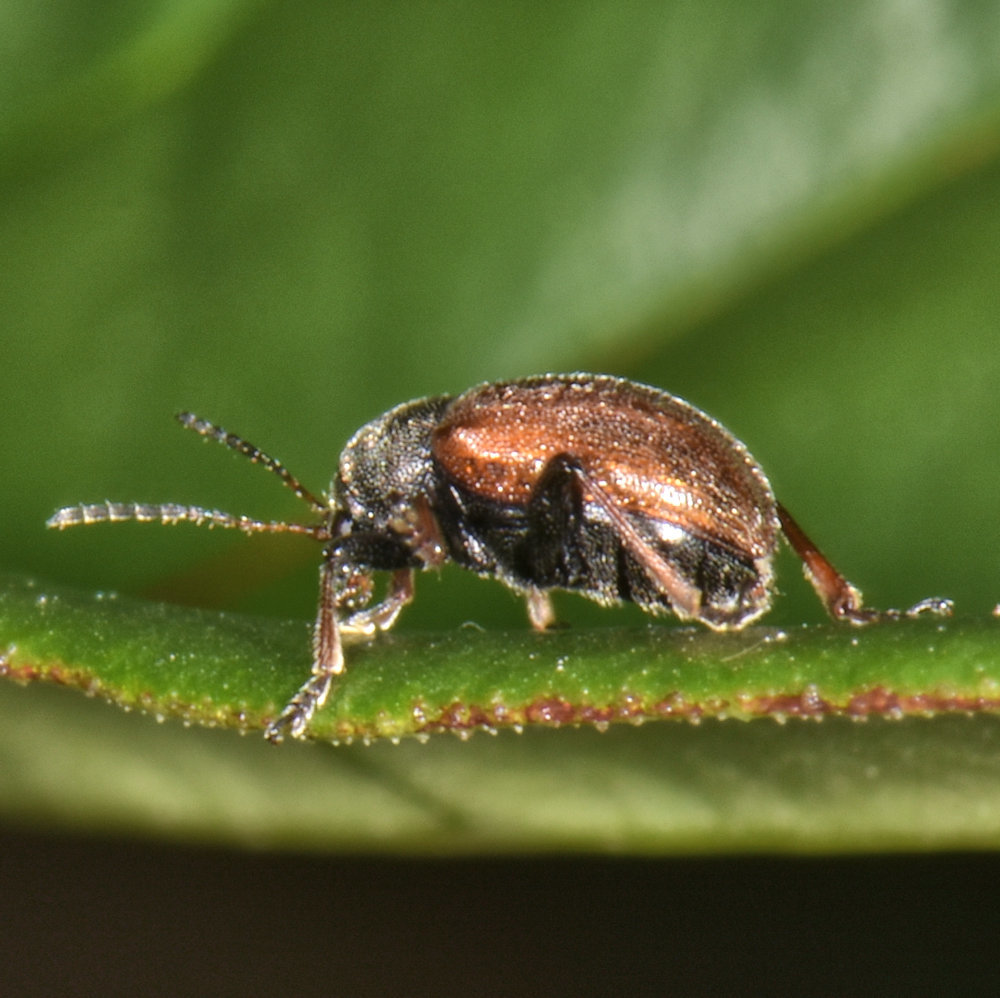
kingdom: Animalia
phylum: Arthropoda
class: Insecta
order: Coleoptera
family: Chrysomelidae
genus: Bromius
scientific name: Bromius obscurus
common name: Western grape rootworm
